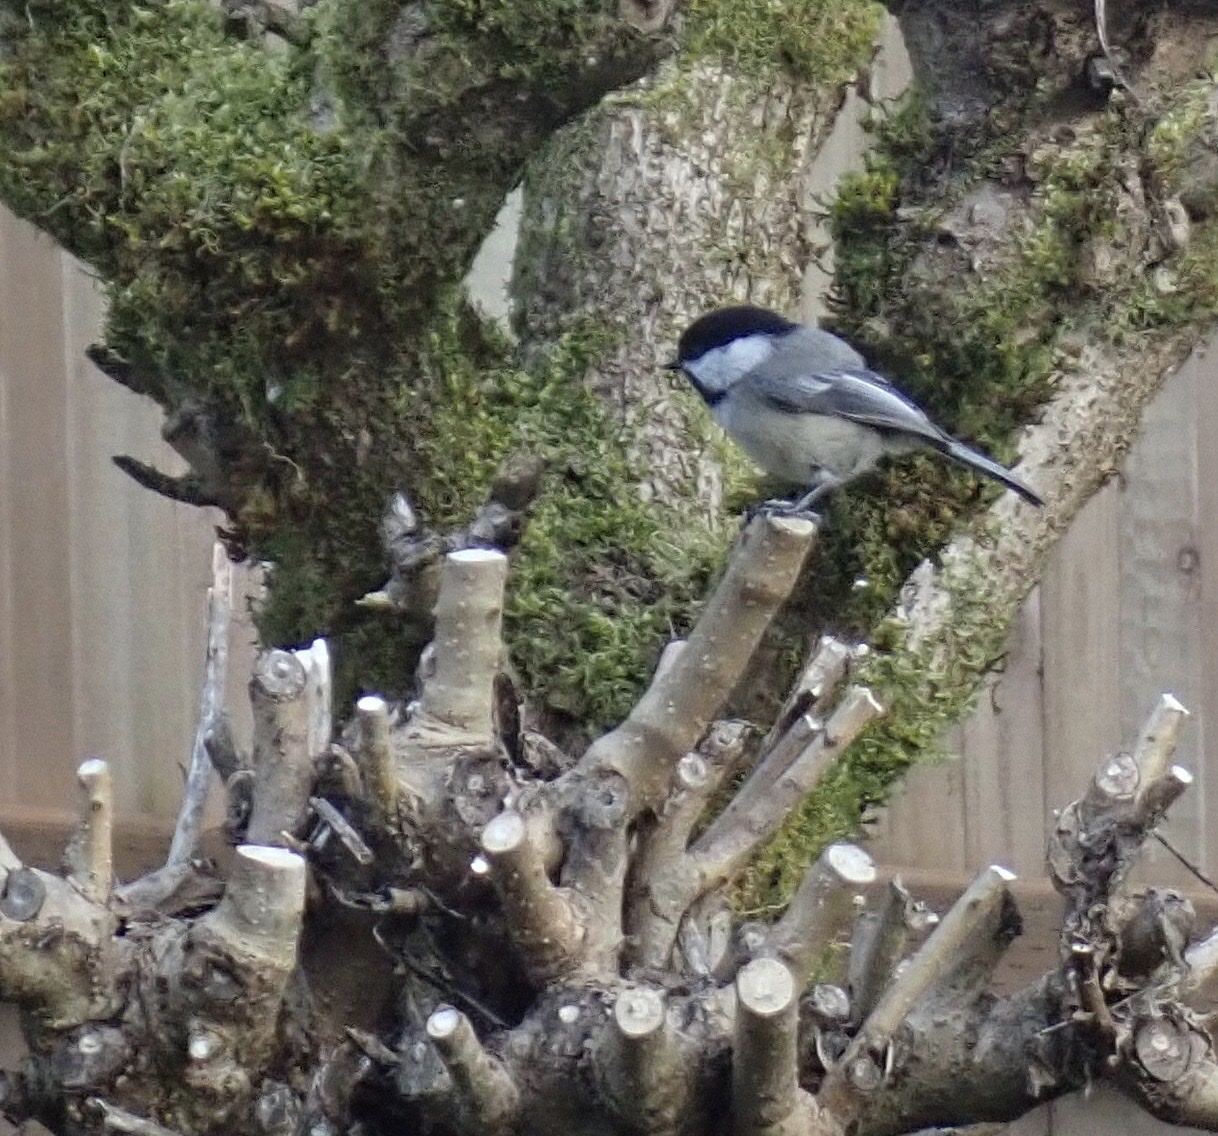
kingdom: Animalia
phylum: Chordata
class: Aves
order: Passeriformes
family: Paridae
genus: Poecile
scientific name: Poecile atricapillus
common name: Black-capped chickadee
